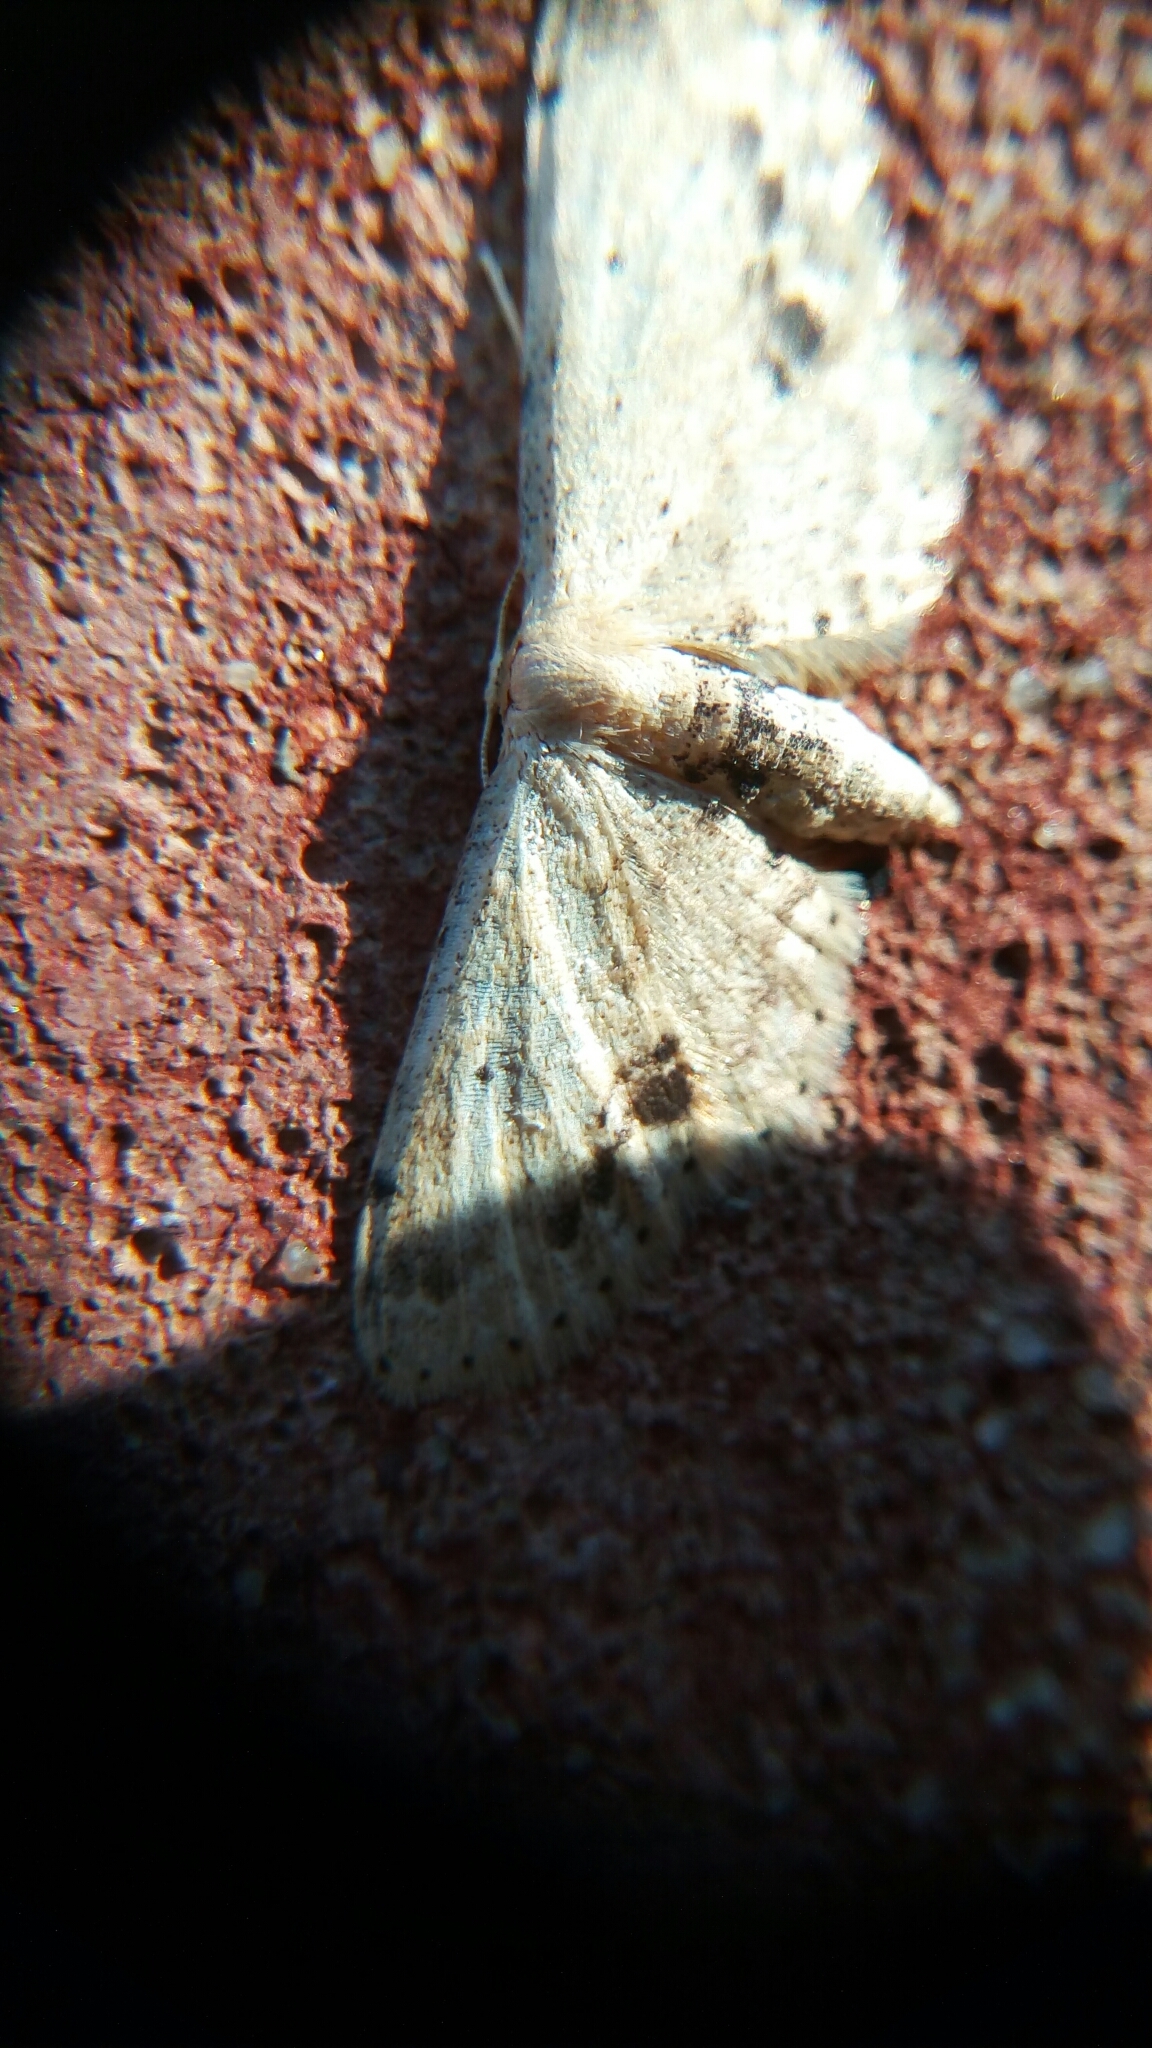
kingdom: Animalia
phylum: Arthropoda
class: Insecta
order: Lepidoptera
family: Geometridae
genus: Idaea
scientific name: Idaea dimidiata
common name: Single-dotted wave
